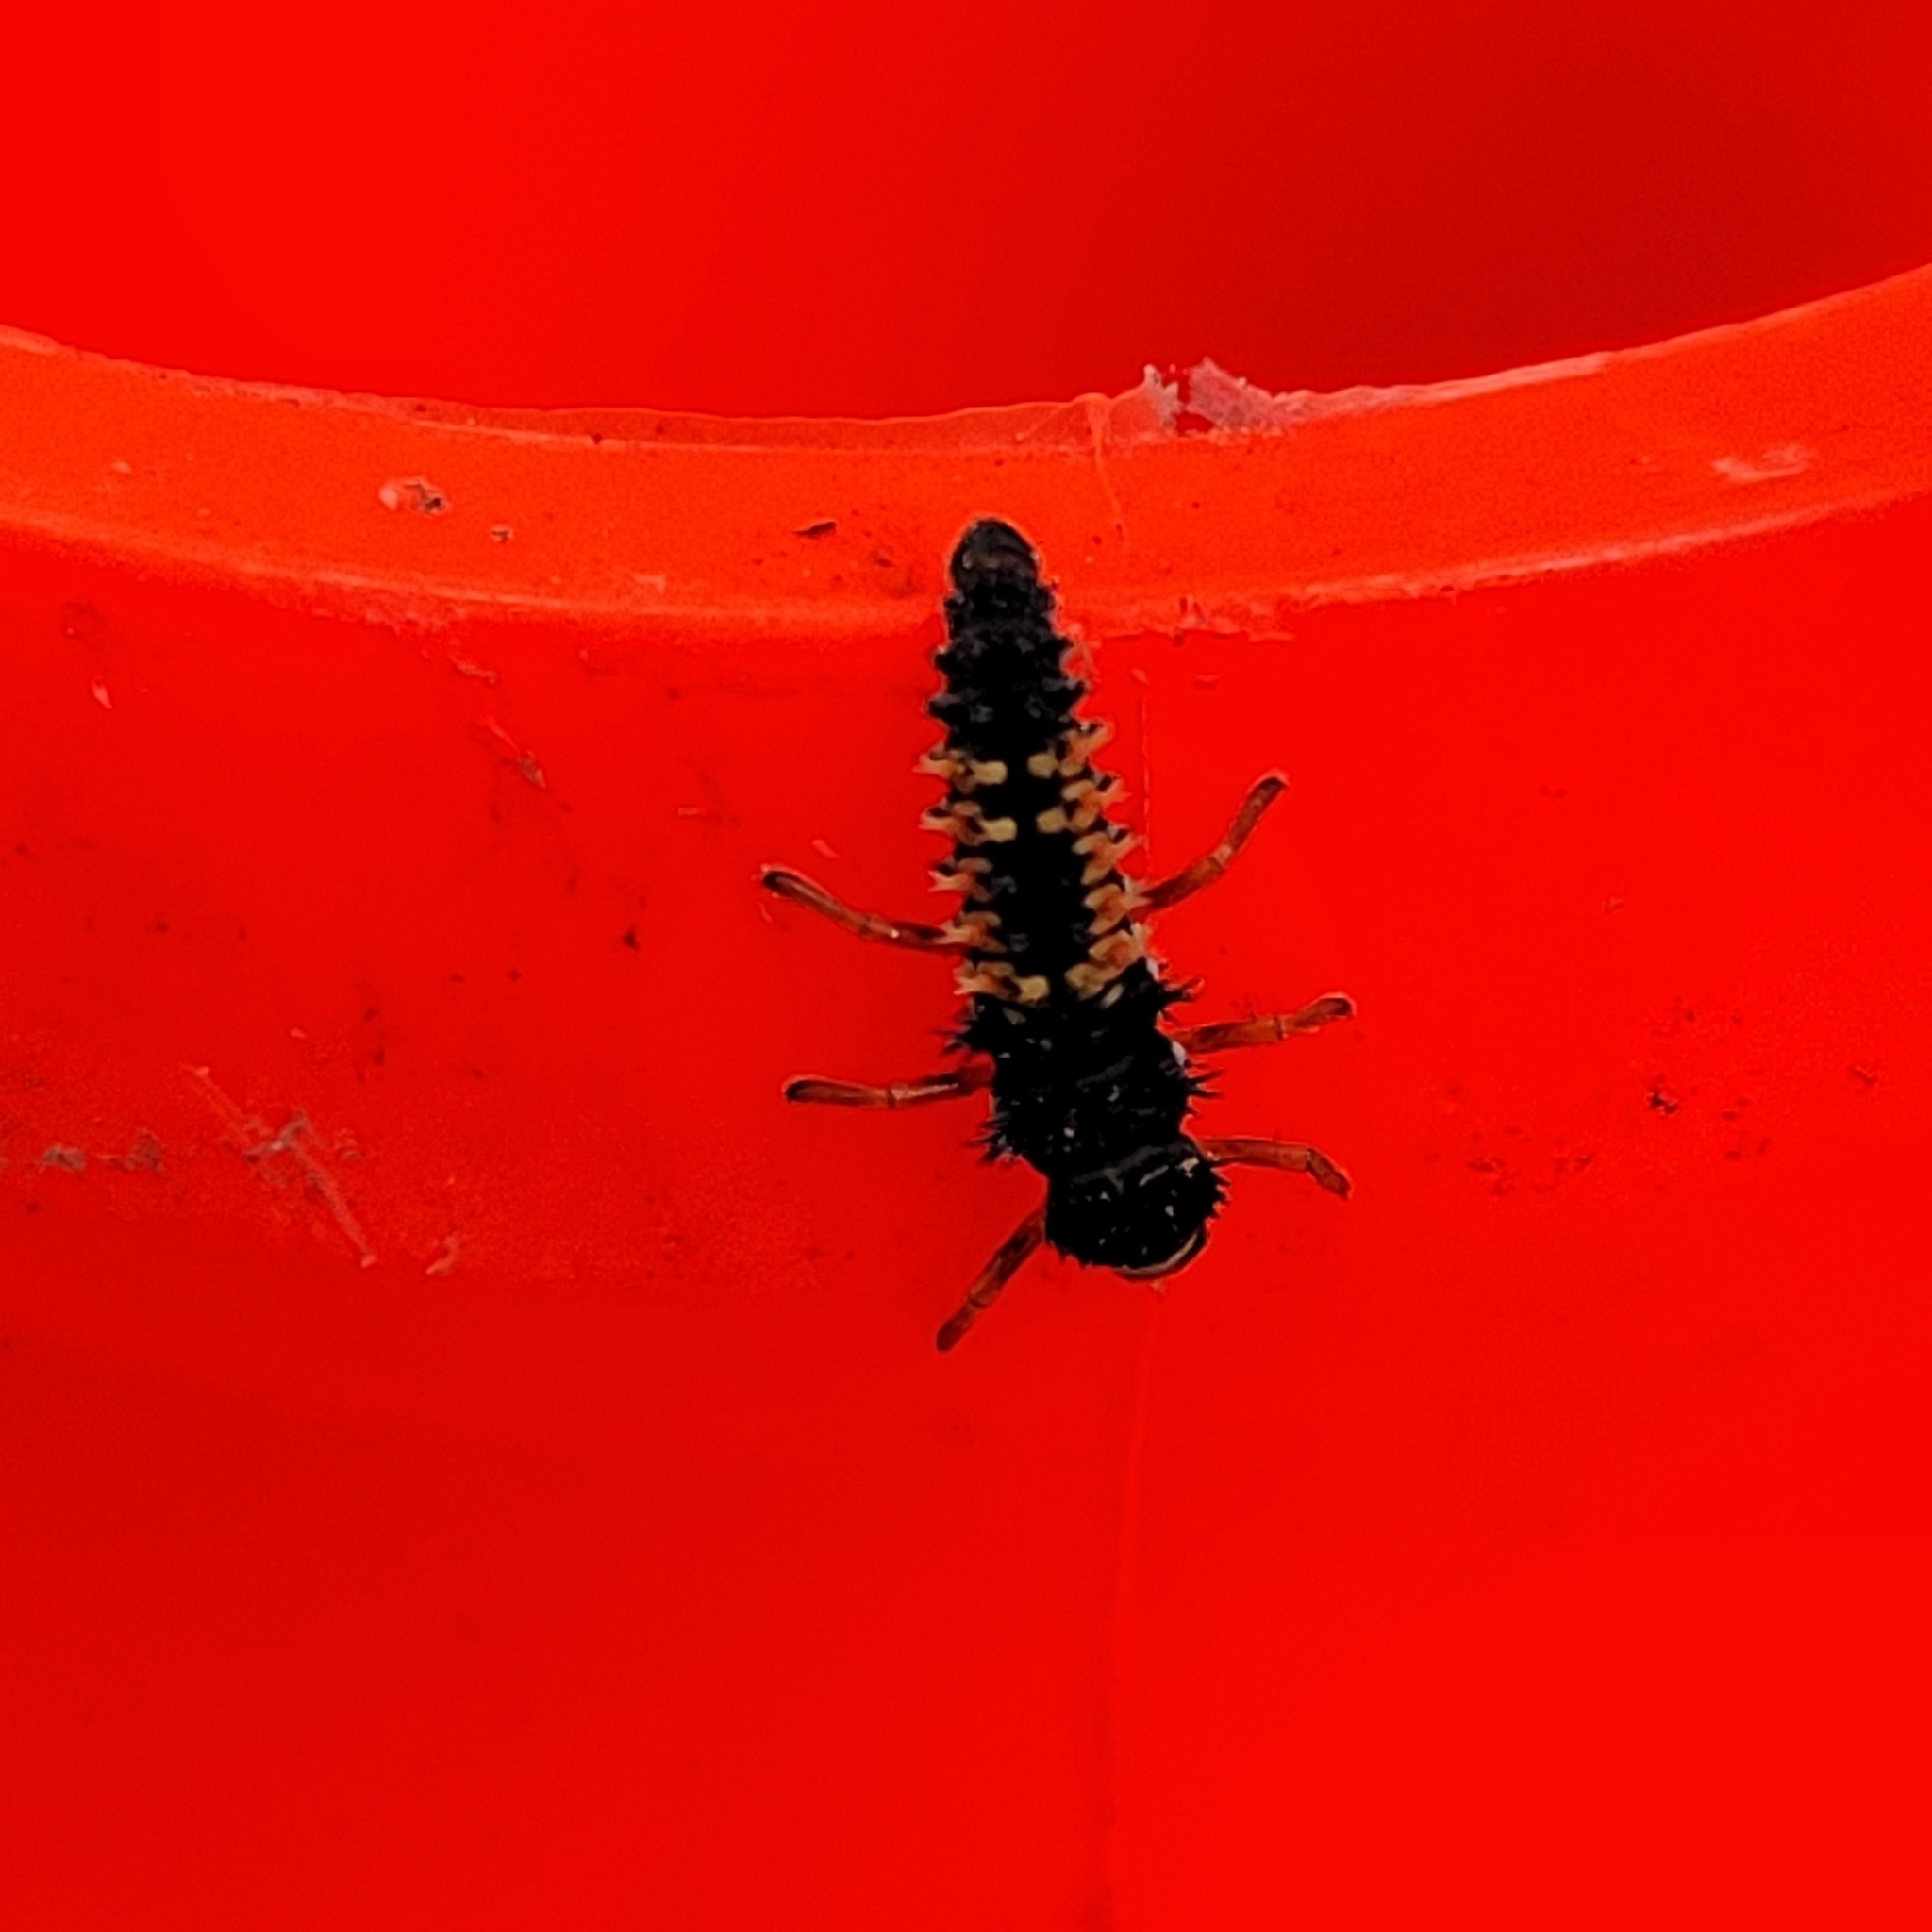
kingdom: Animalia
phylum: Arthropoda
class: Insecta
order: Coleoptera
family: Coccinellidae
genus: Harmonia
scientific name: Harmonia axyridis
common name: Harlequin ladybird
